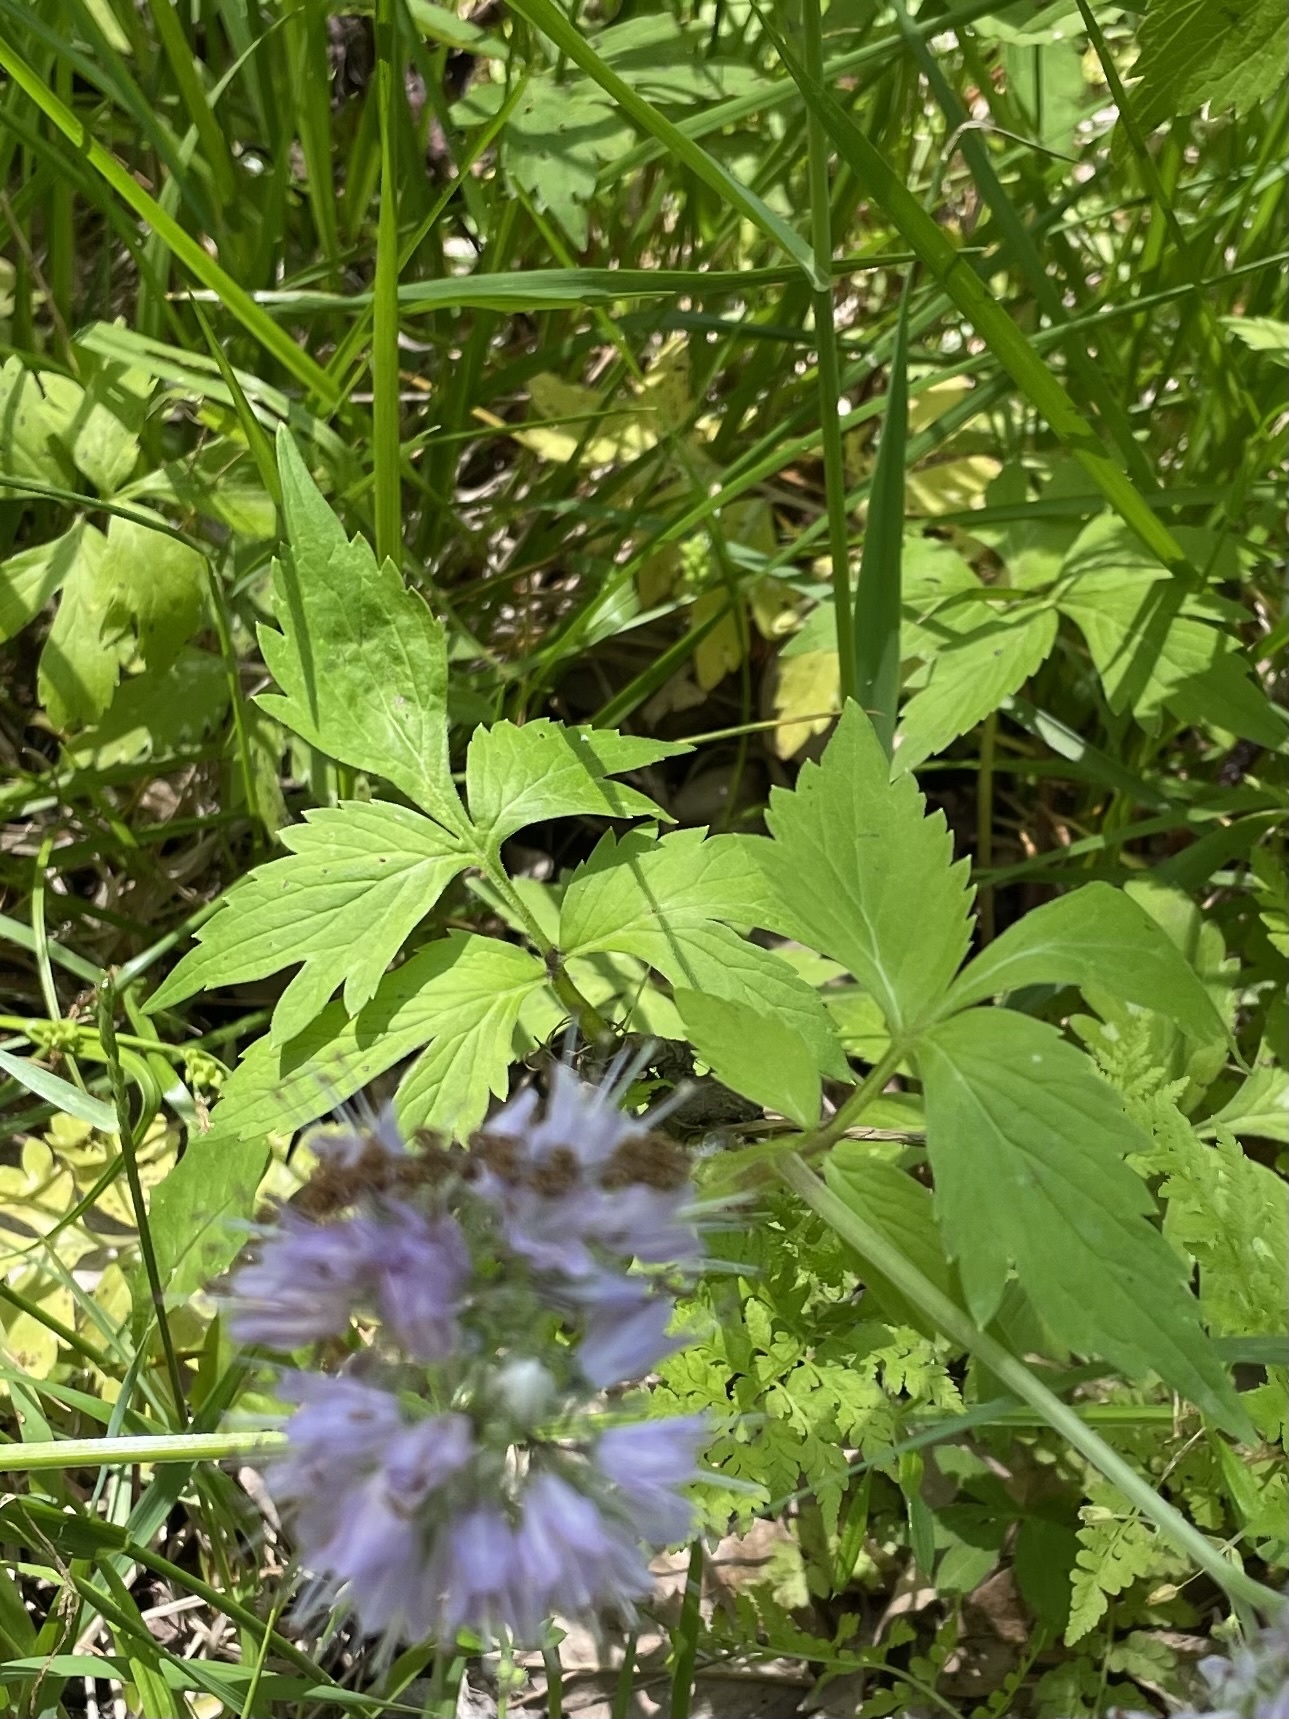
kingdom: Plantae
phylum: Tracheophyta
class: Magnoliopsida
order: Boraginales
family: Hydrophyllaceae
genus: Hydrophyllum
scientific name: Hydrophyllum virginianum
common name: Virginia waterleaf
